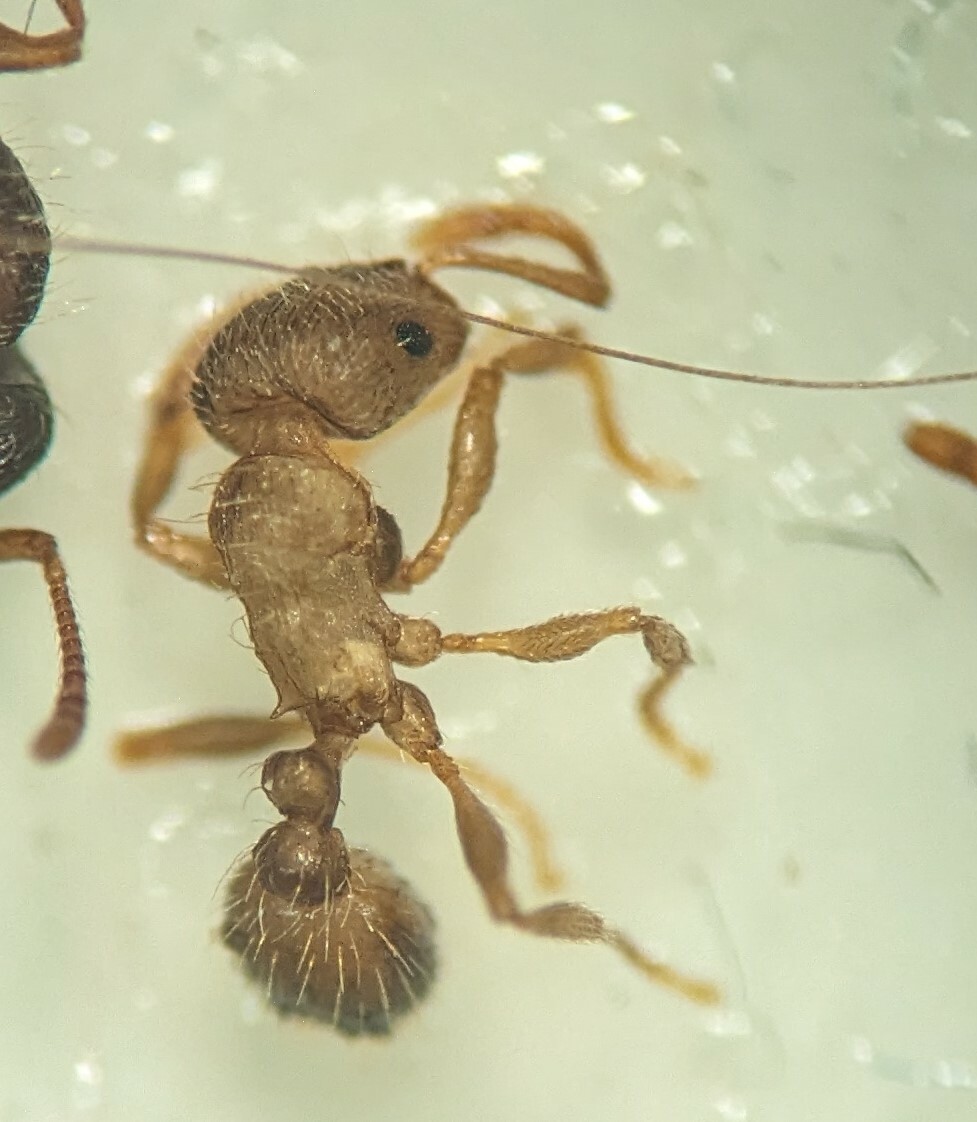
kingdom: Animalia
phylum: Arthropoda
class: Insecta
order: Hymenoptera
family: Formicidae
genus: Tetramorium
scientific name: Tetramorium immigrans
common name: Pavement ant
